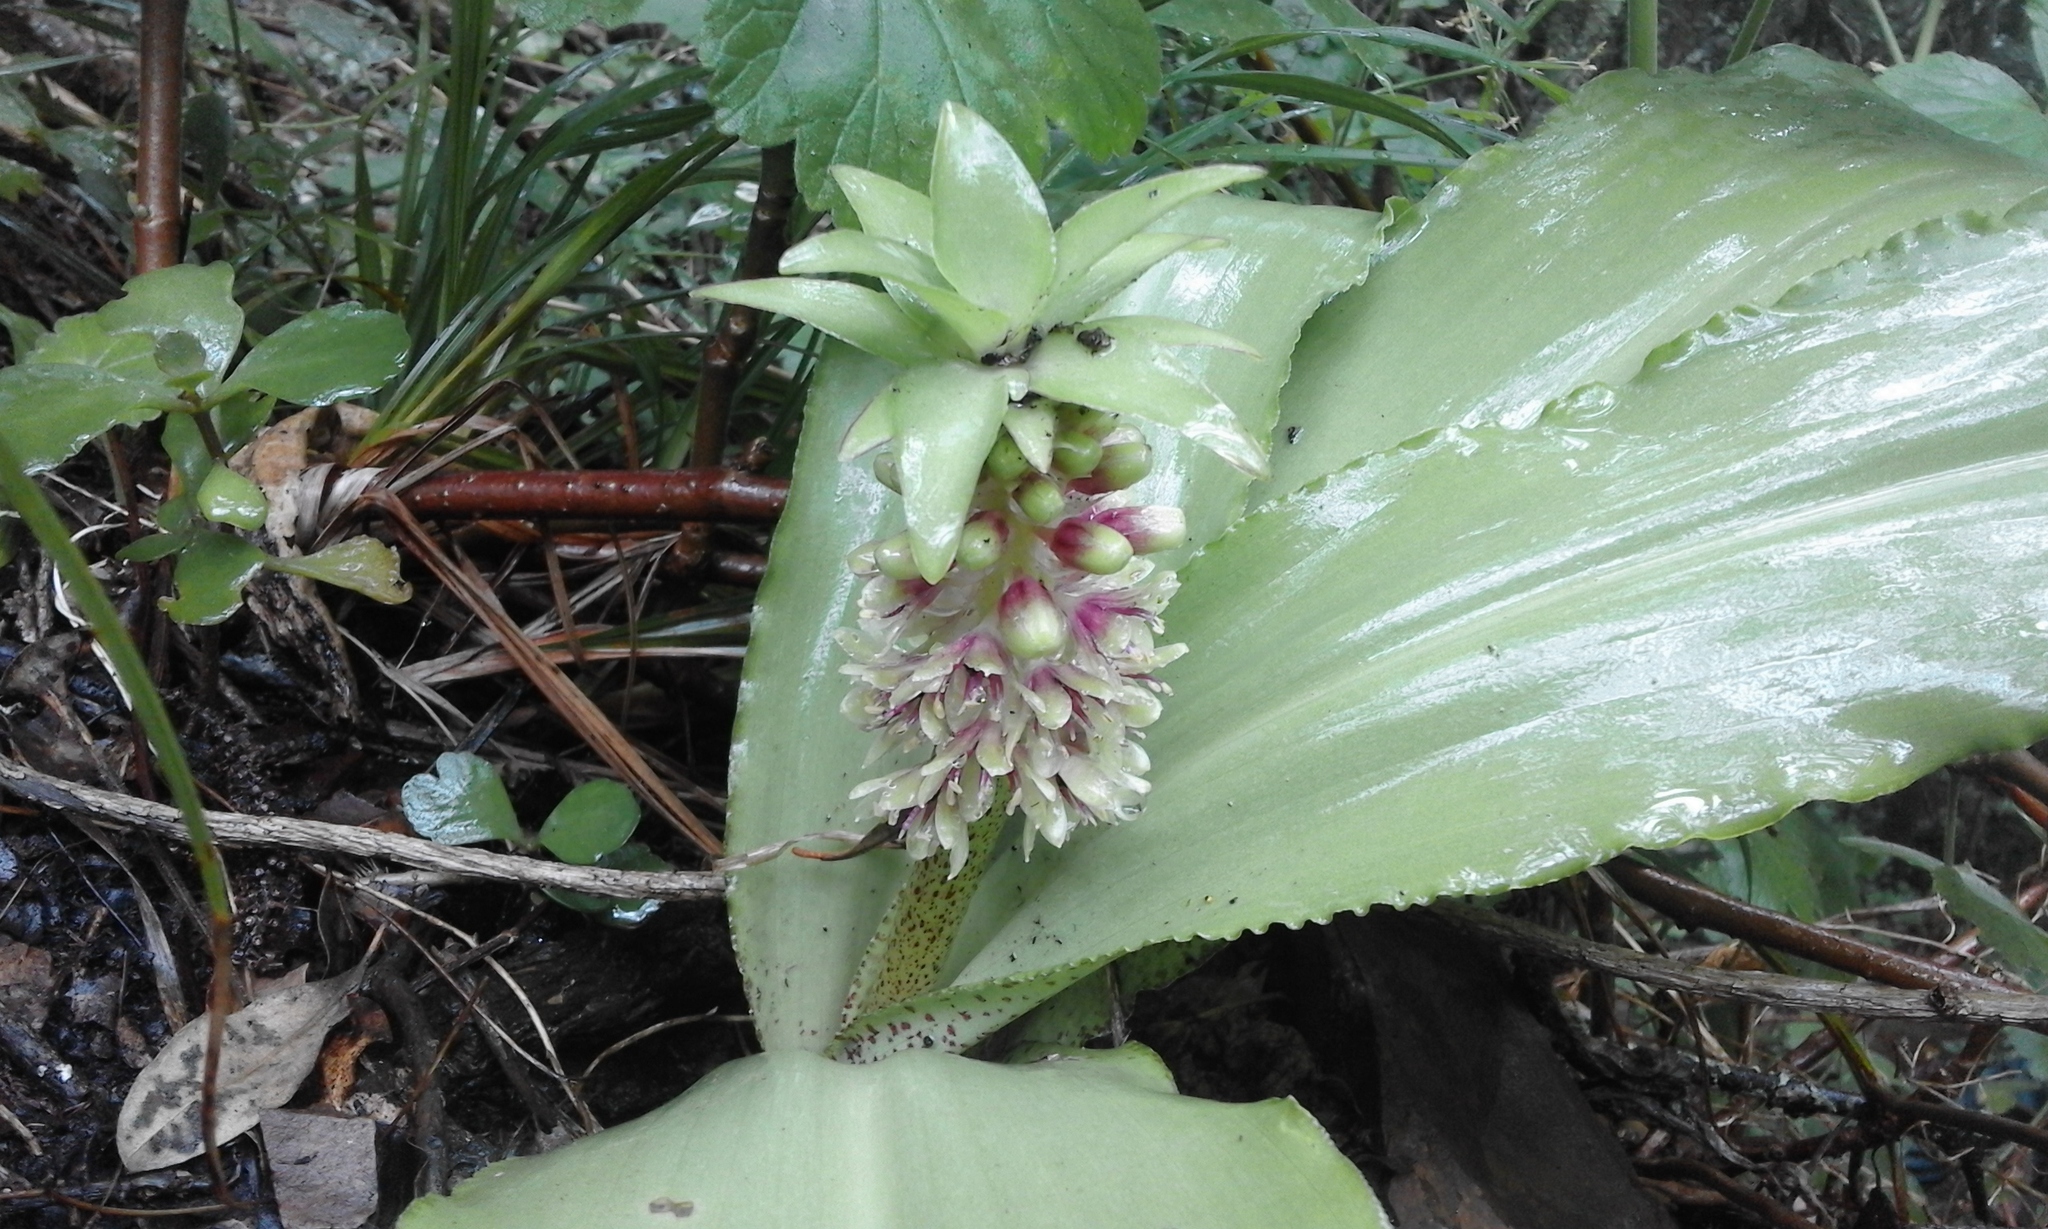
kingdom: Plantae
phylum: Tracheophyta
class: Liliopsida
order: Asparagales
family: Asparagaceae
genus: Eucomis
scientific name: Eucomis montana
